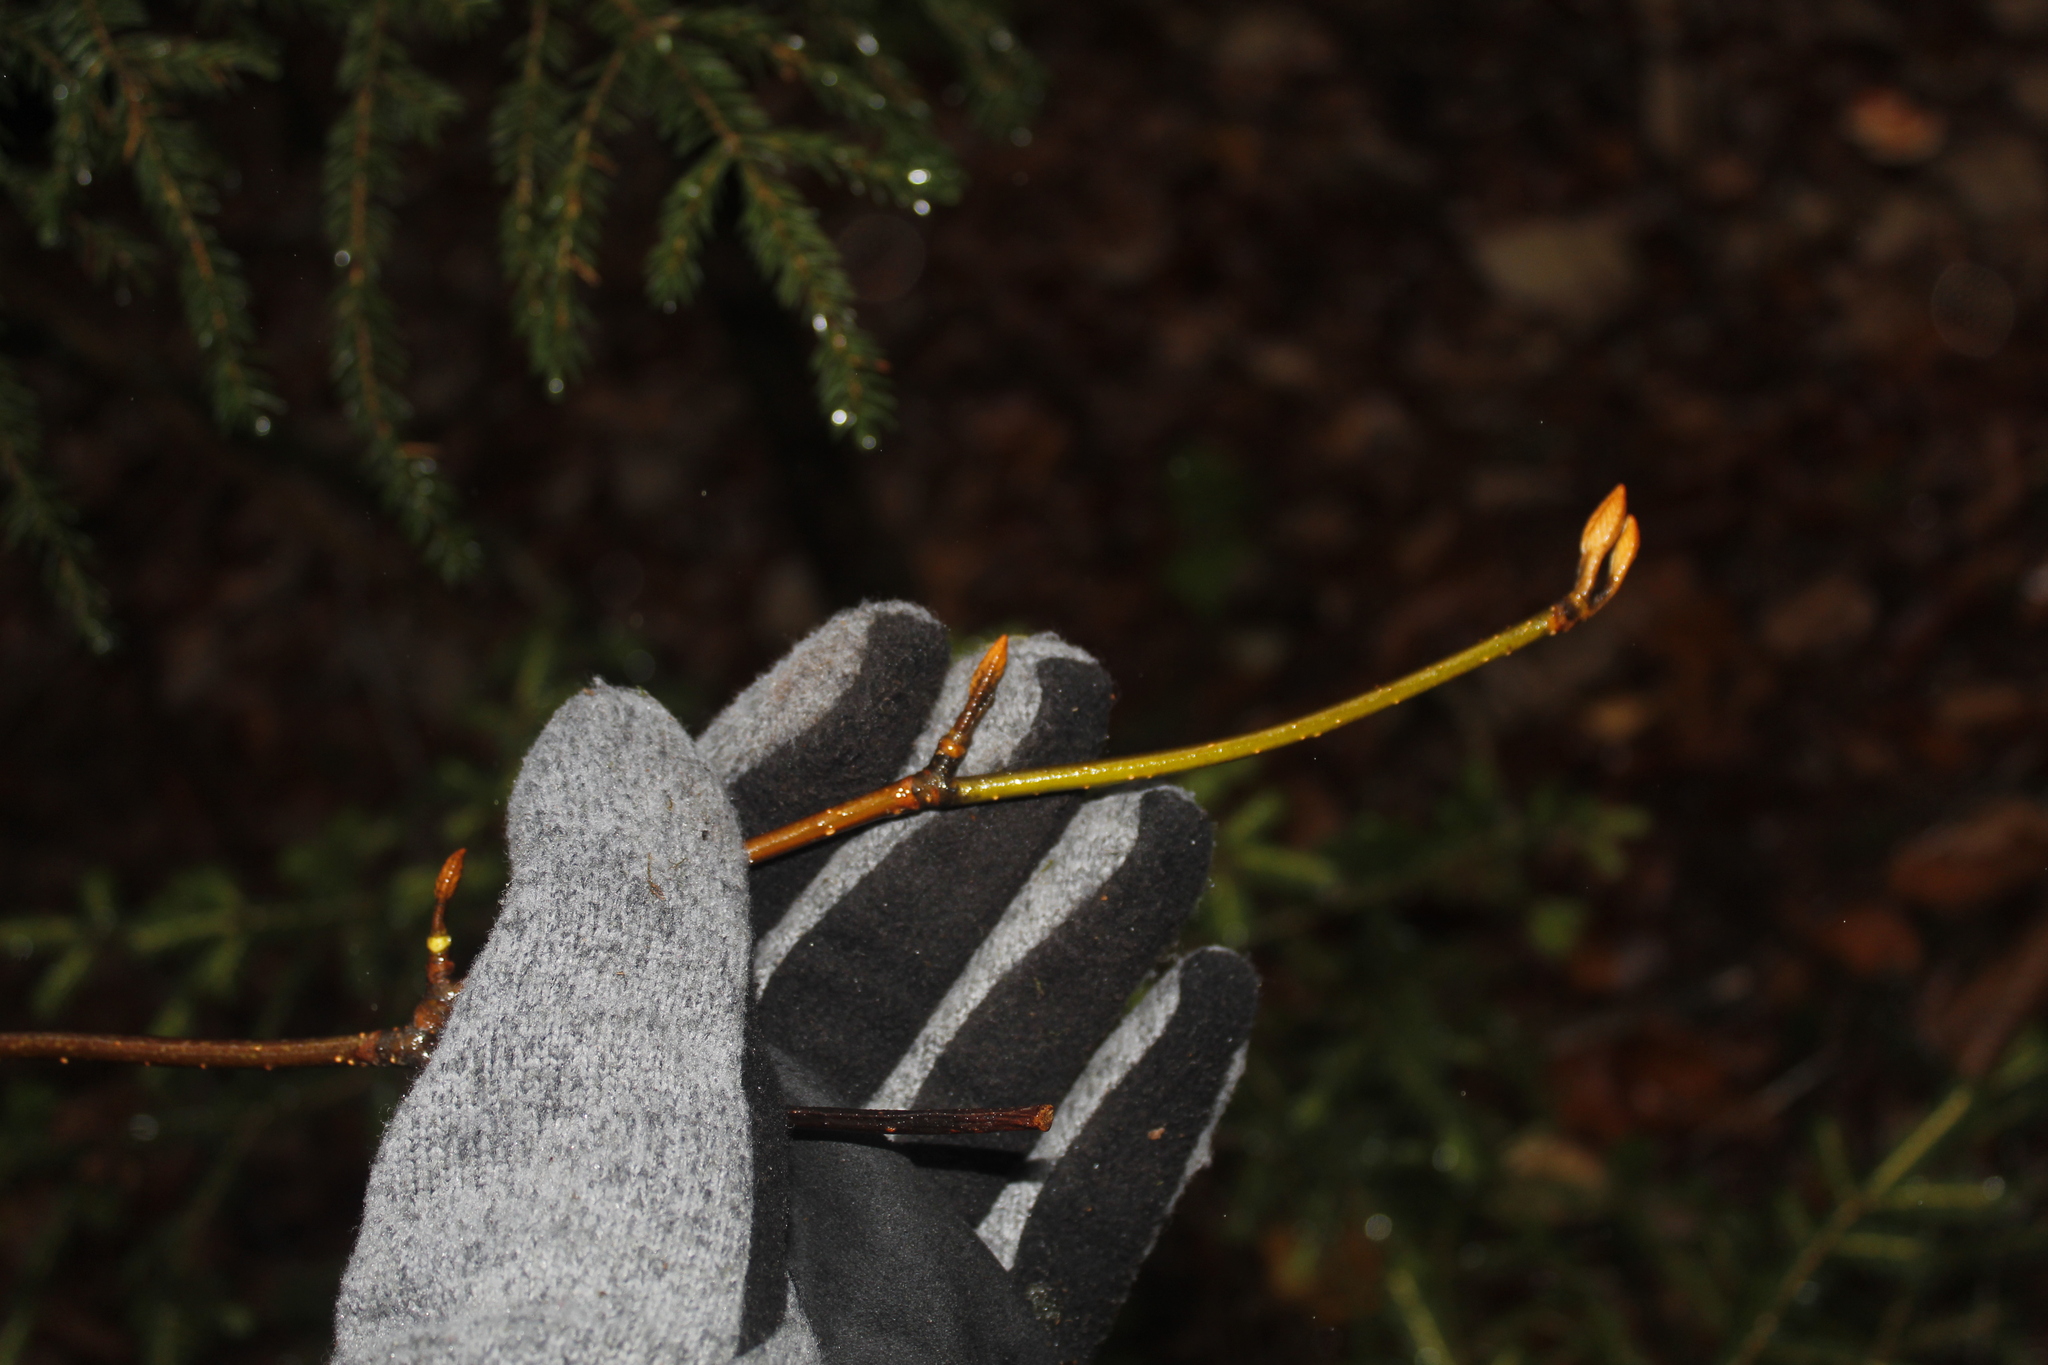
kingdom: Plantae
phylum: Tracheophyta
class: Magnoliopsida
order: Dipsacales
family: Viburnaceae
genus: Viburnum
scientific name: Viburnum lantanoides
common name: Hobblebush
